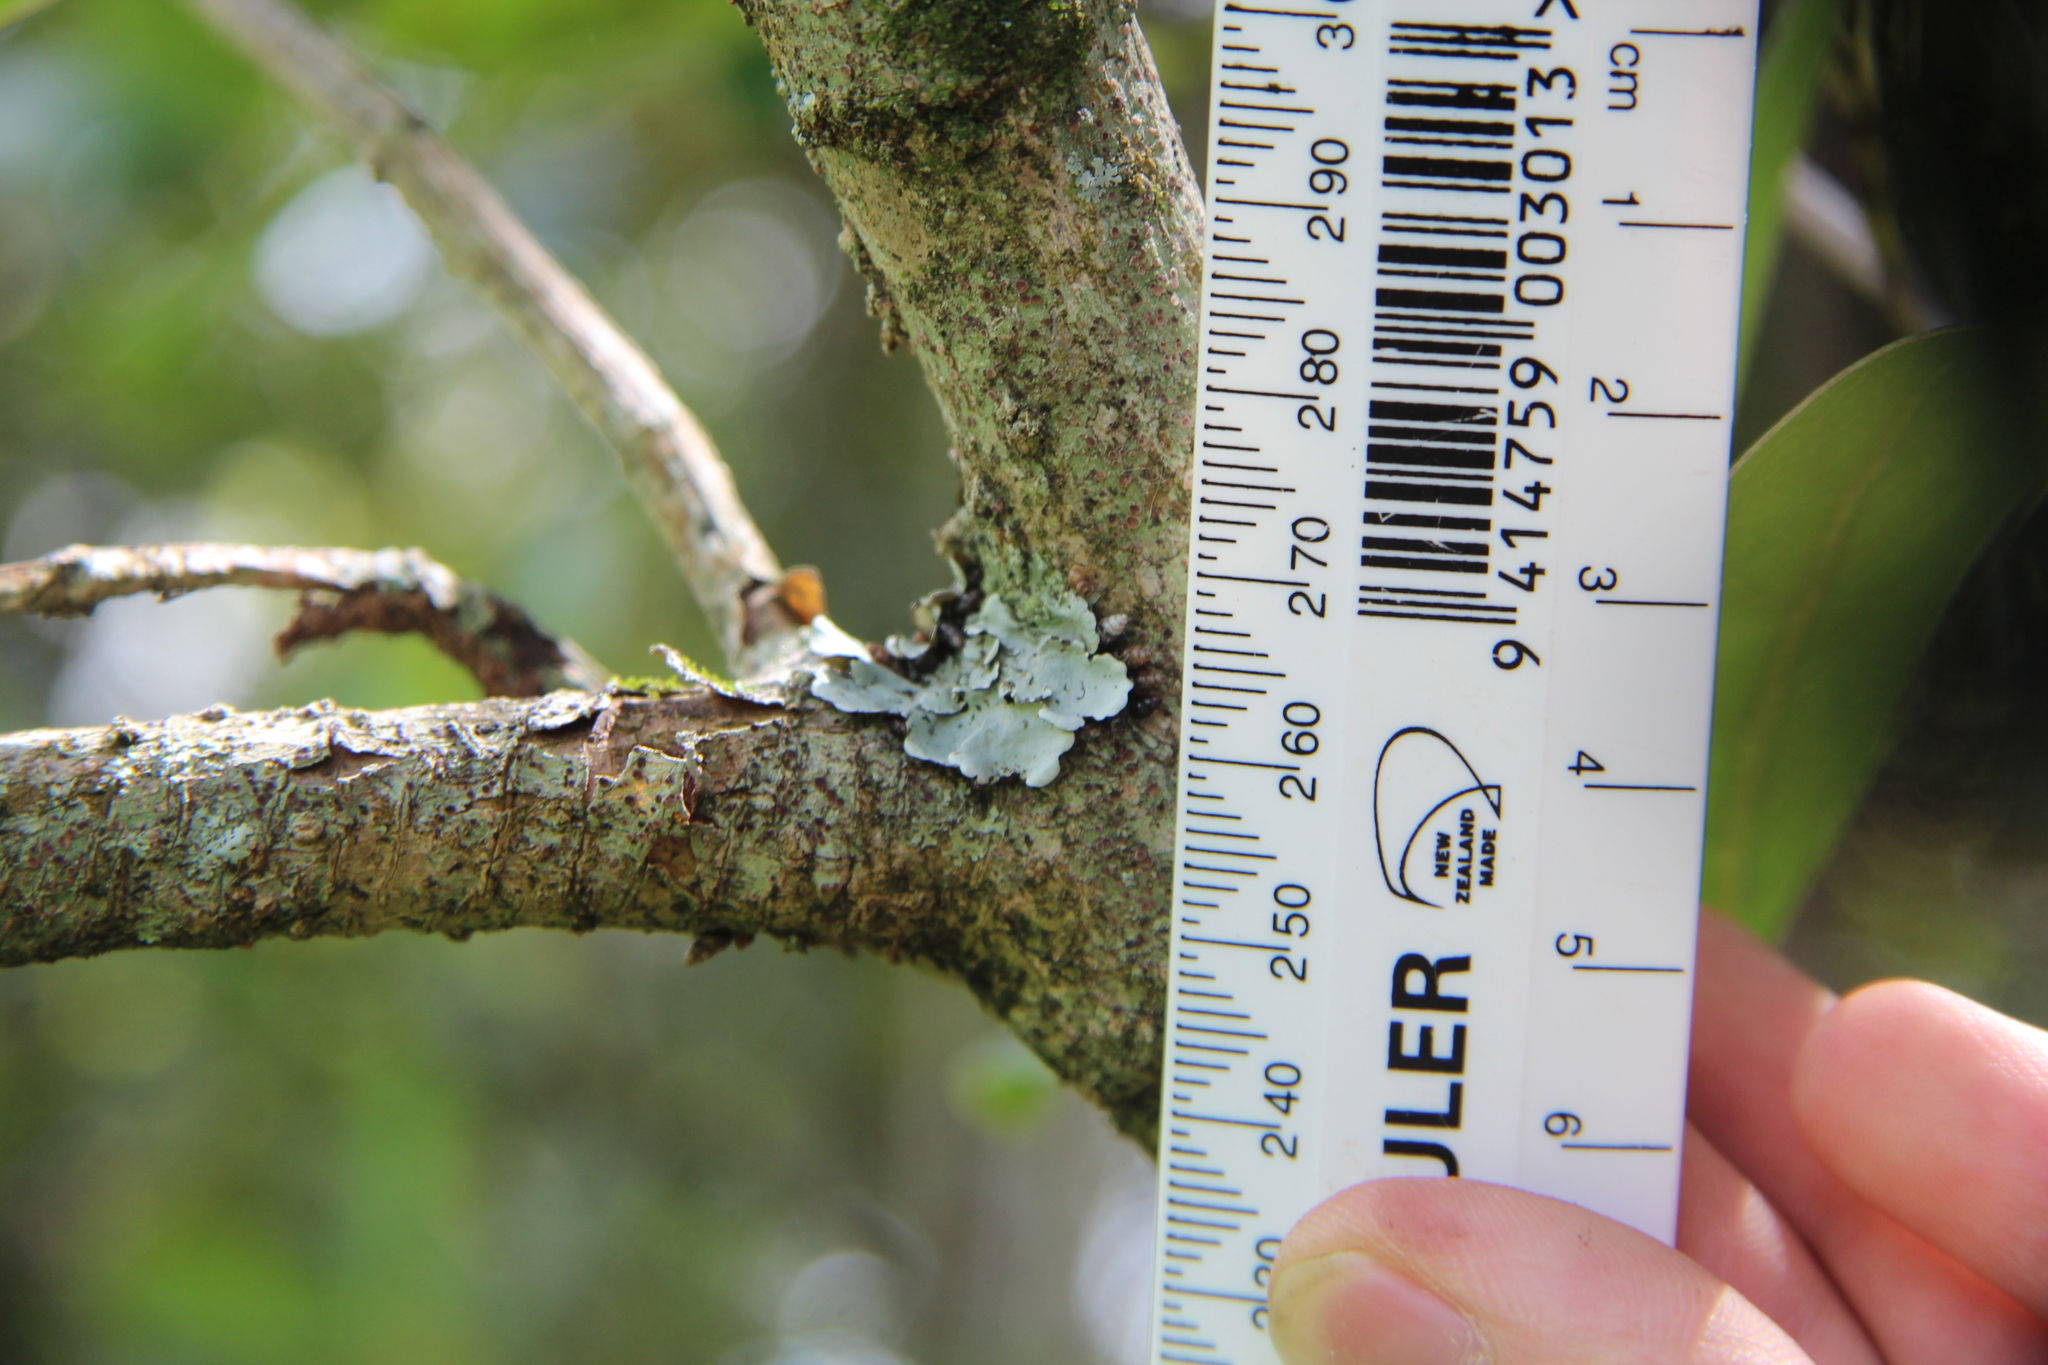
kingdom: Animalia
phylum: Mollusca
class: Gastropoda
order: Stylommatophora
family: Achatinellidae
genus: Tornatellinops
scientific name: Tornatellinops novoseelandicus
